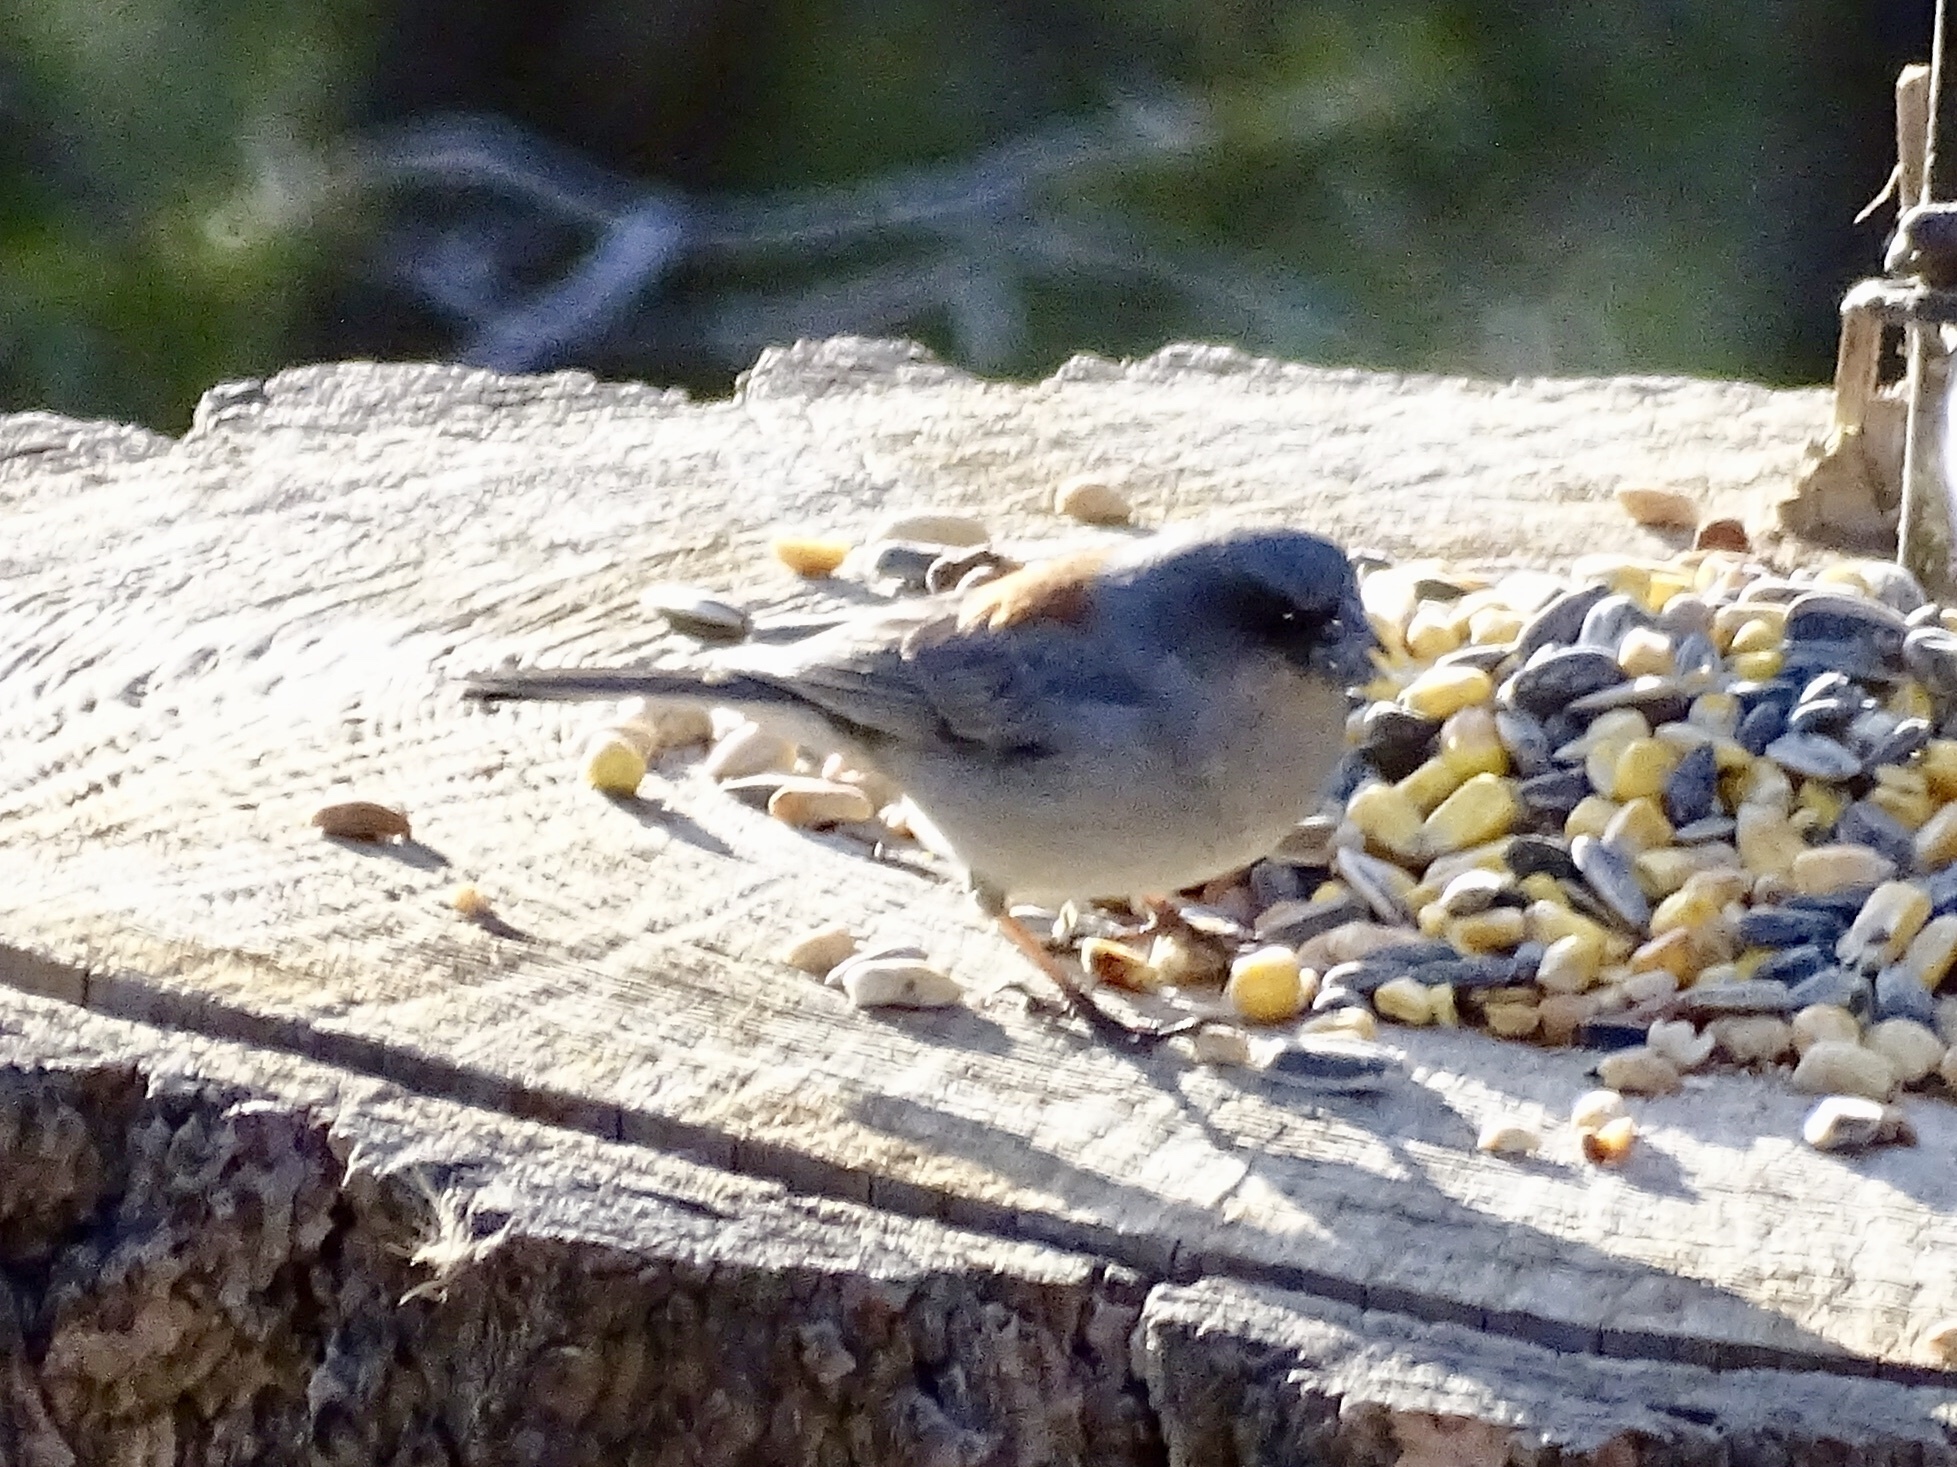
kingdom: Animalia
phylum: Chordata
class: Aves
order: Passeriformes
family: Passerellidae
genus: Junco
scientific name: Junco hyemalis
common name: Dark-eyed junco
